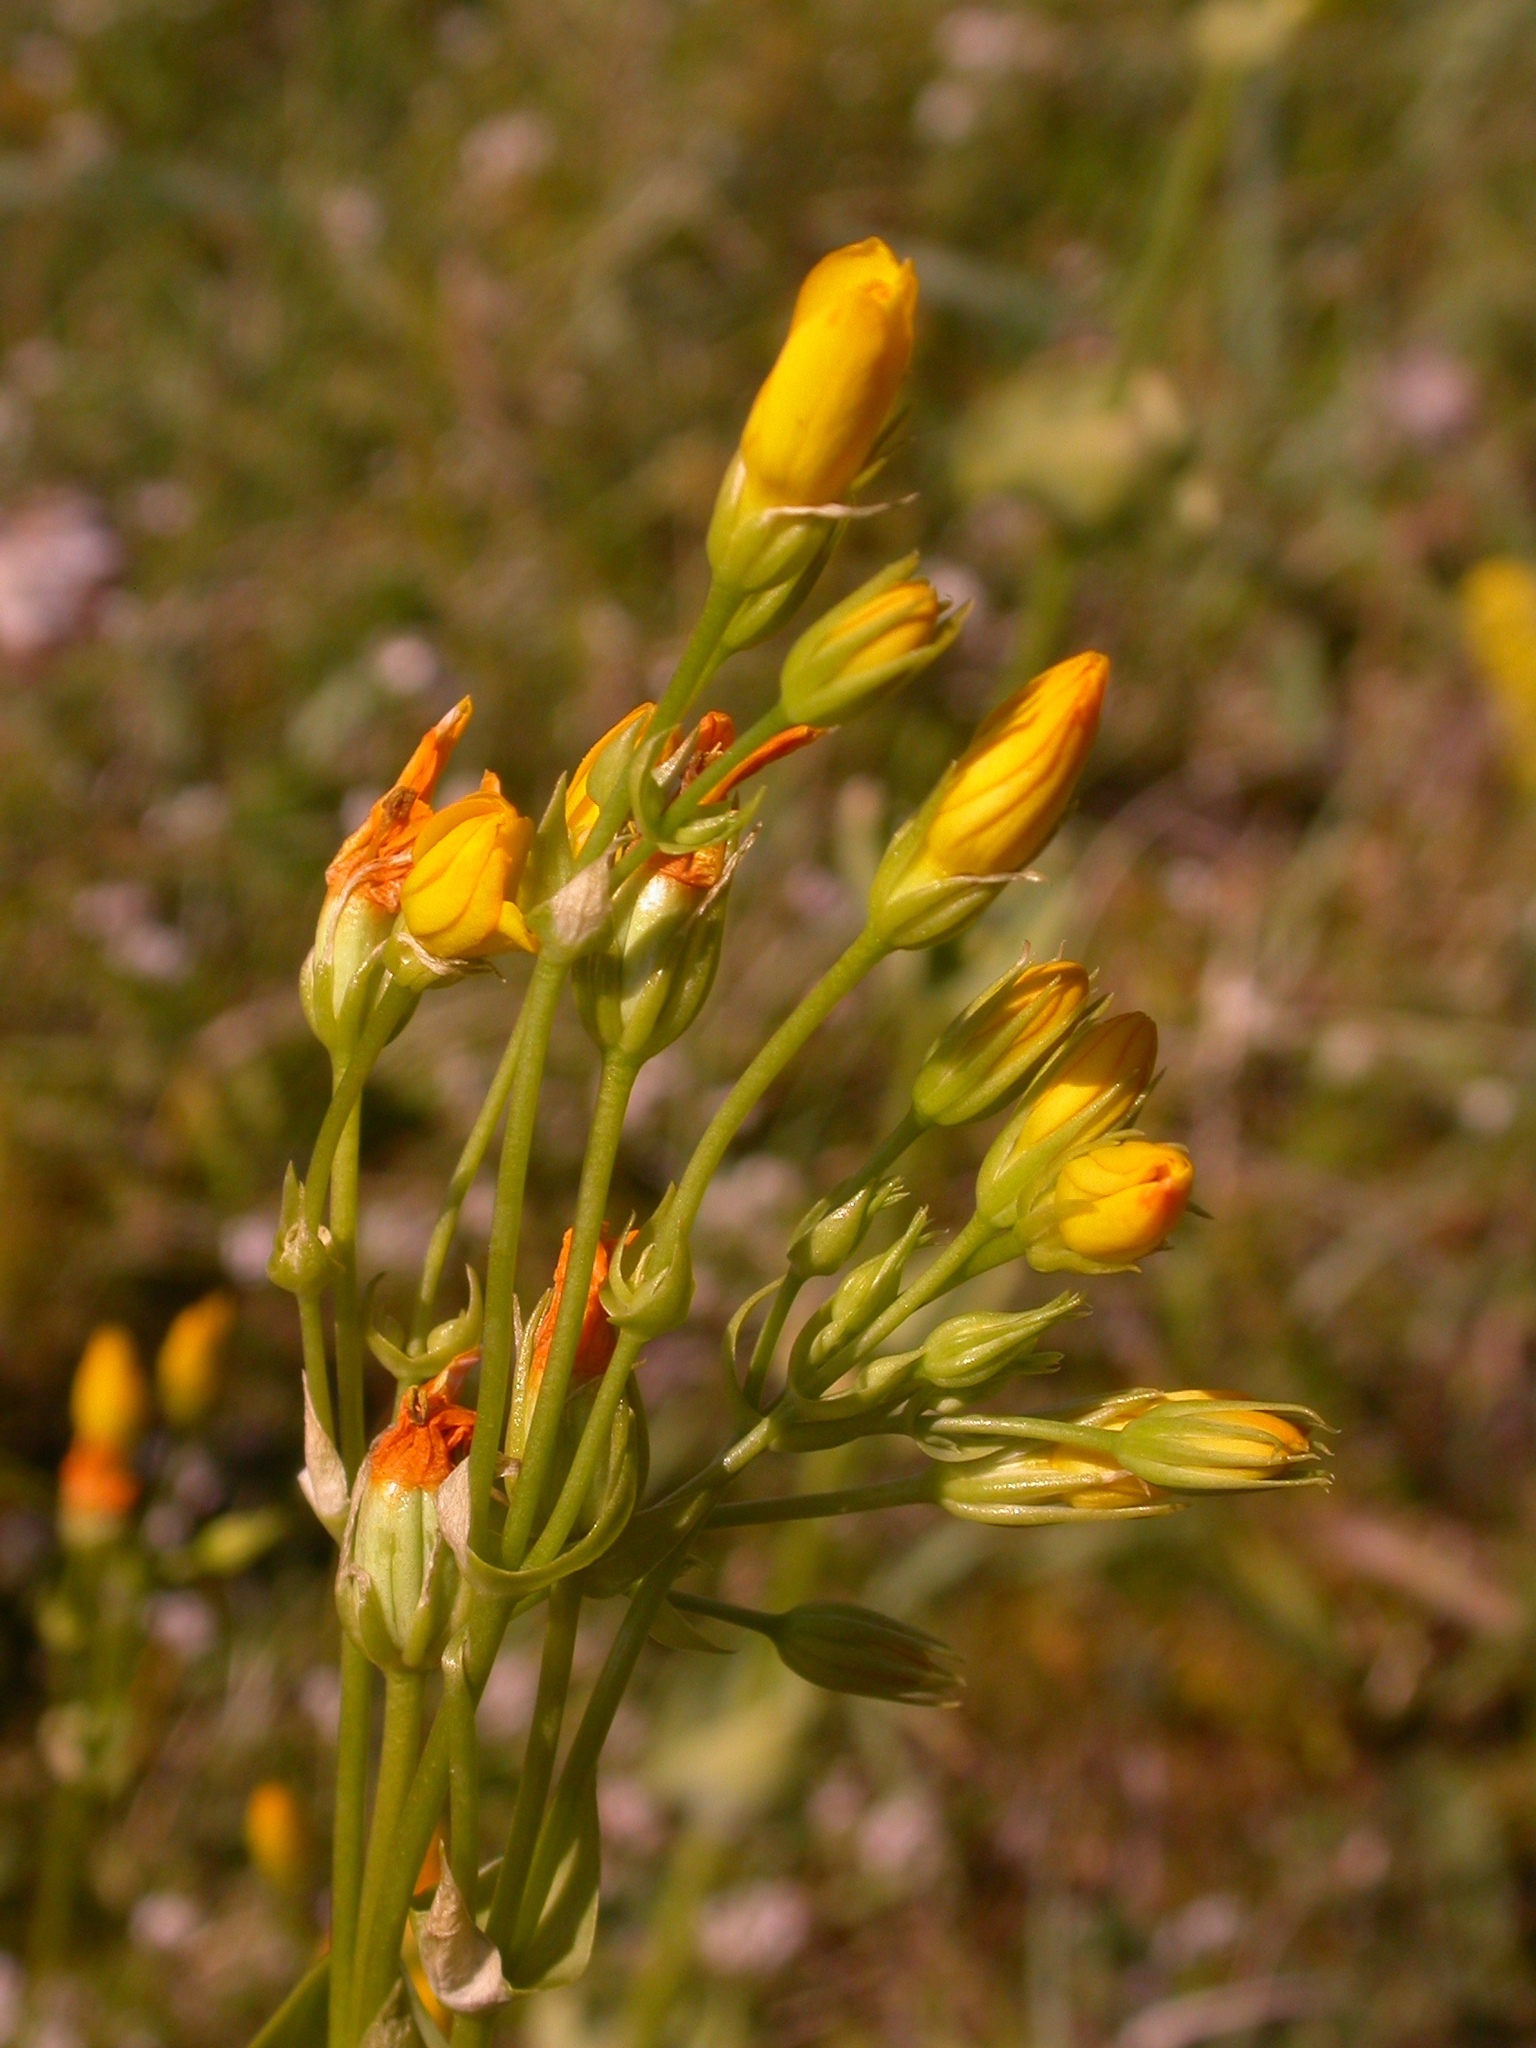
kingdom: Plantae
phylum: Tracheophyta
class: Magnoliopsida
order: Gentianales
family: Gentianaceae
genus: Blackstonia
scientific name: Blackstonia perfoliata
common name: Yellow-wort
